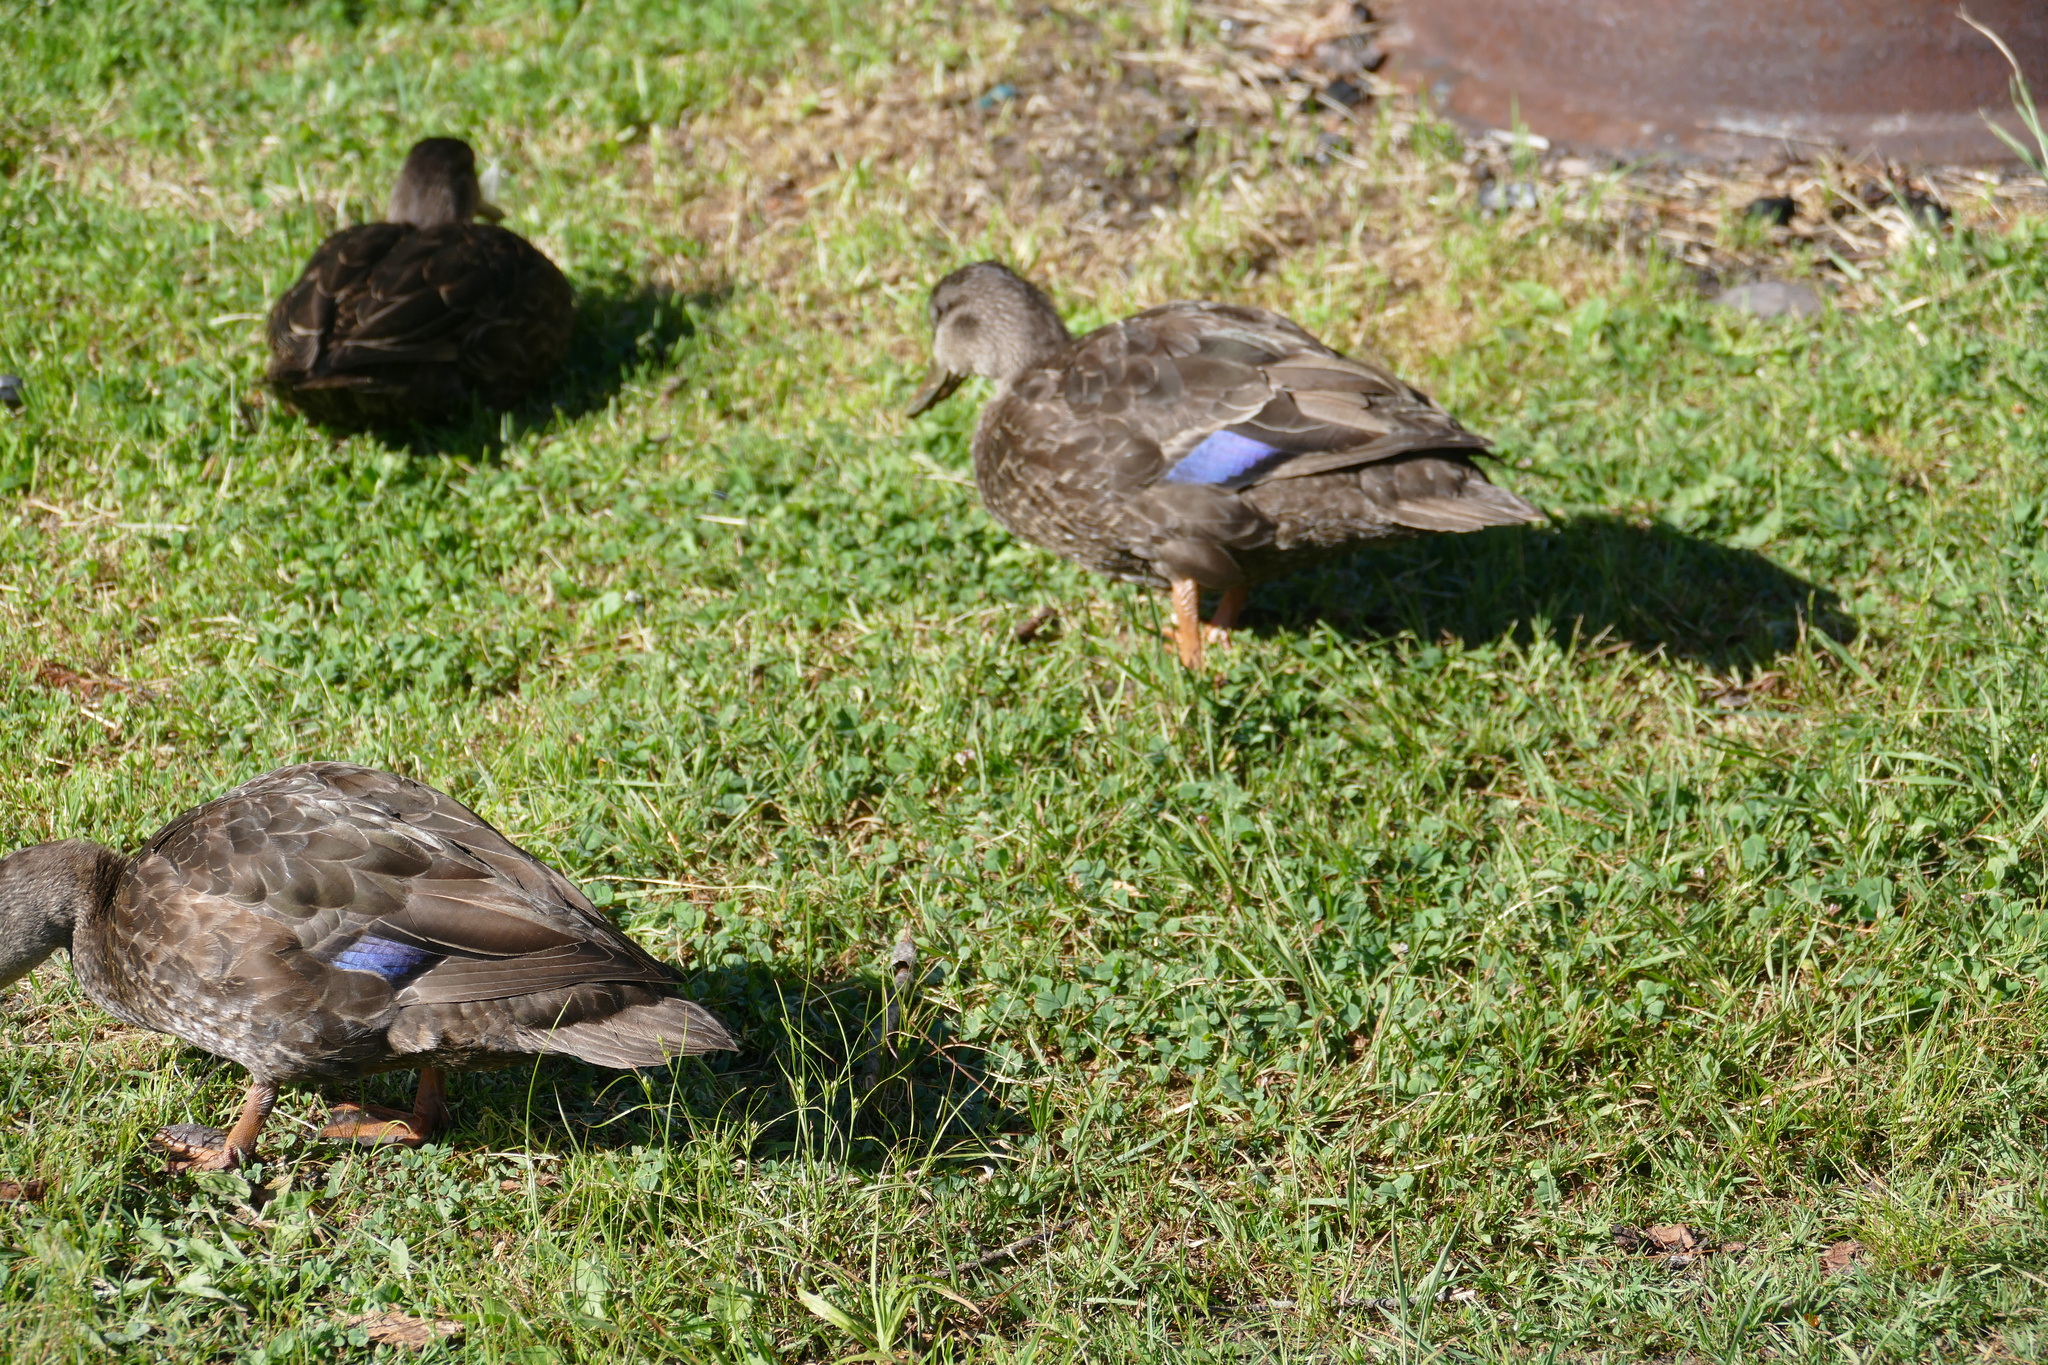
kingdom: Animalia
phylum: Chordata
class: Aves
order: Anseriformes
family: Anatidae
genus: Anas
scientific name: Anas rubripes
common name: American black duck
